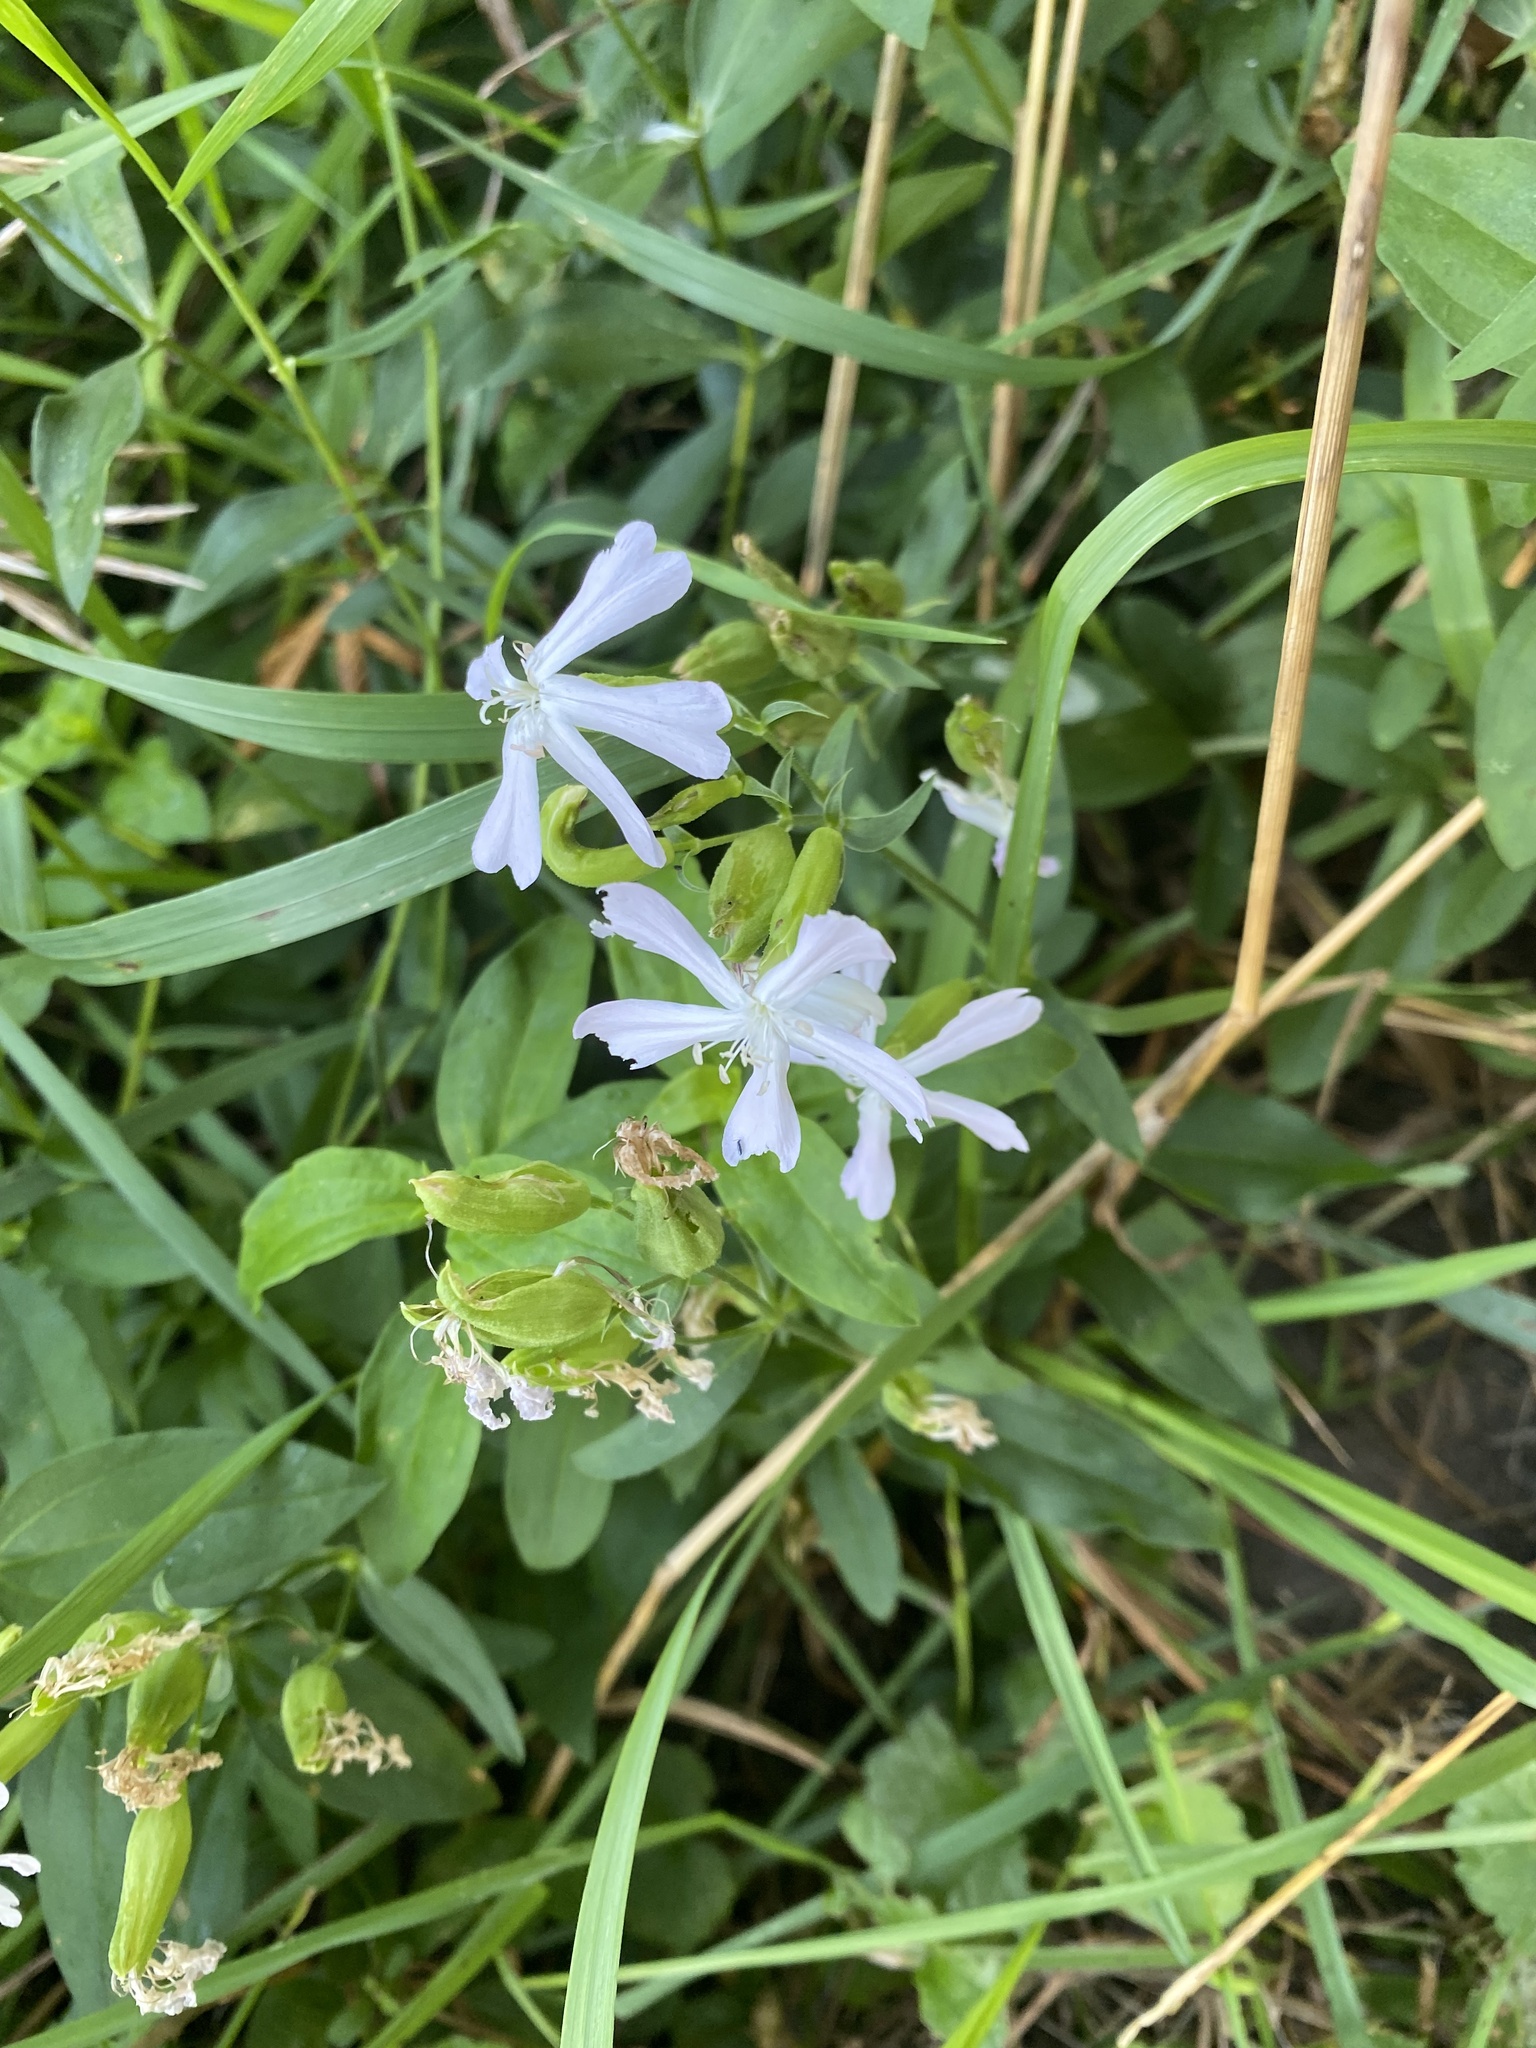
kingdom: Plantae
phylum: Tracheophyta
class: Magnoliopsida
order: Caryophyllales
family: Caryophyllaceae
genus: Saponaria
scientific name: Saponaria officinalis
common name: Soapwort
